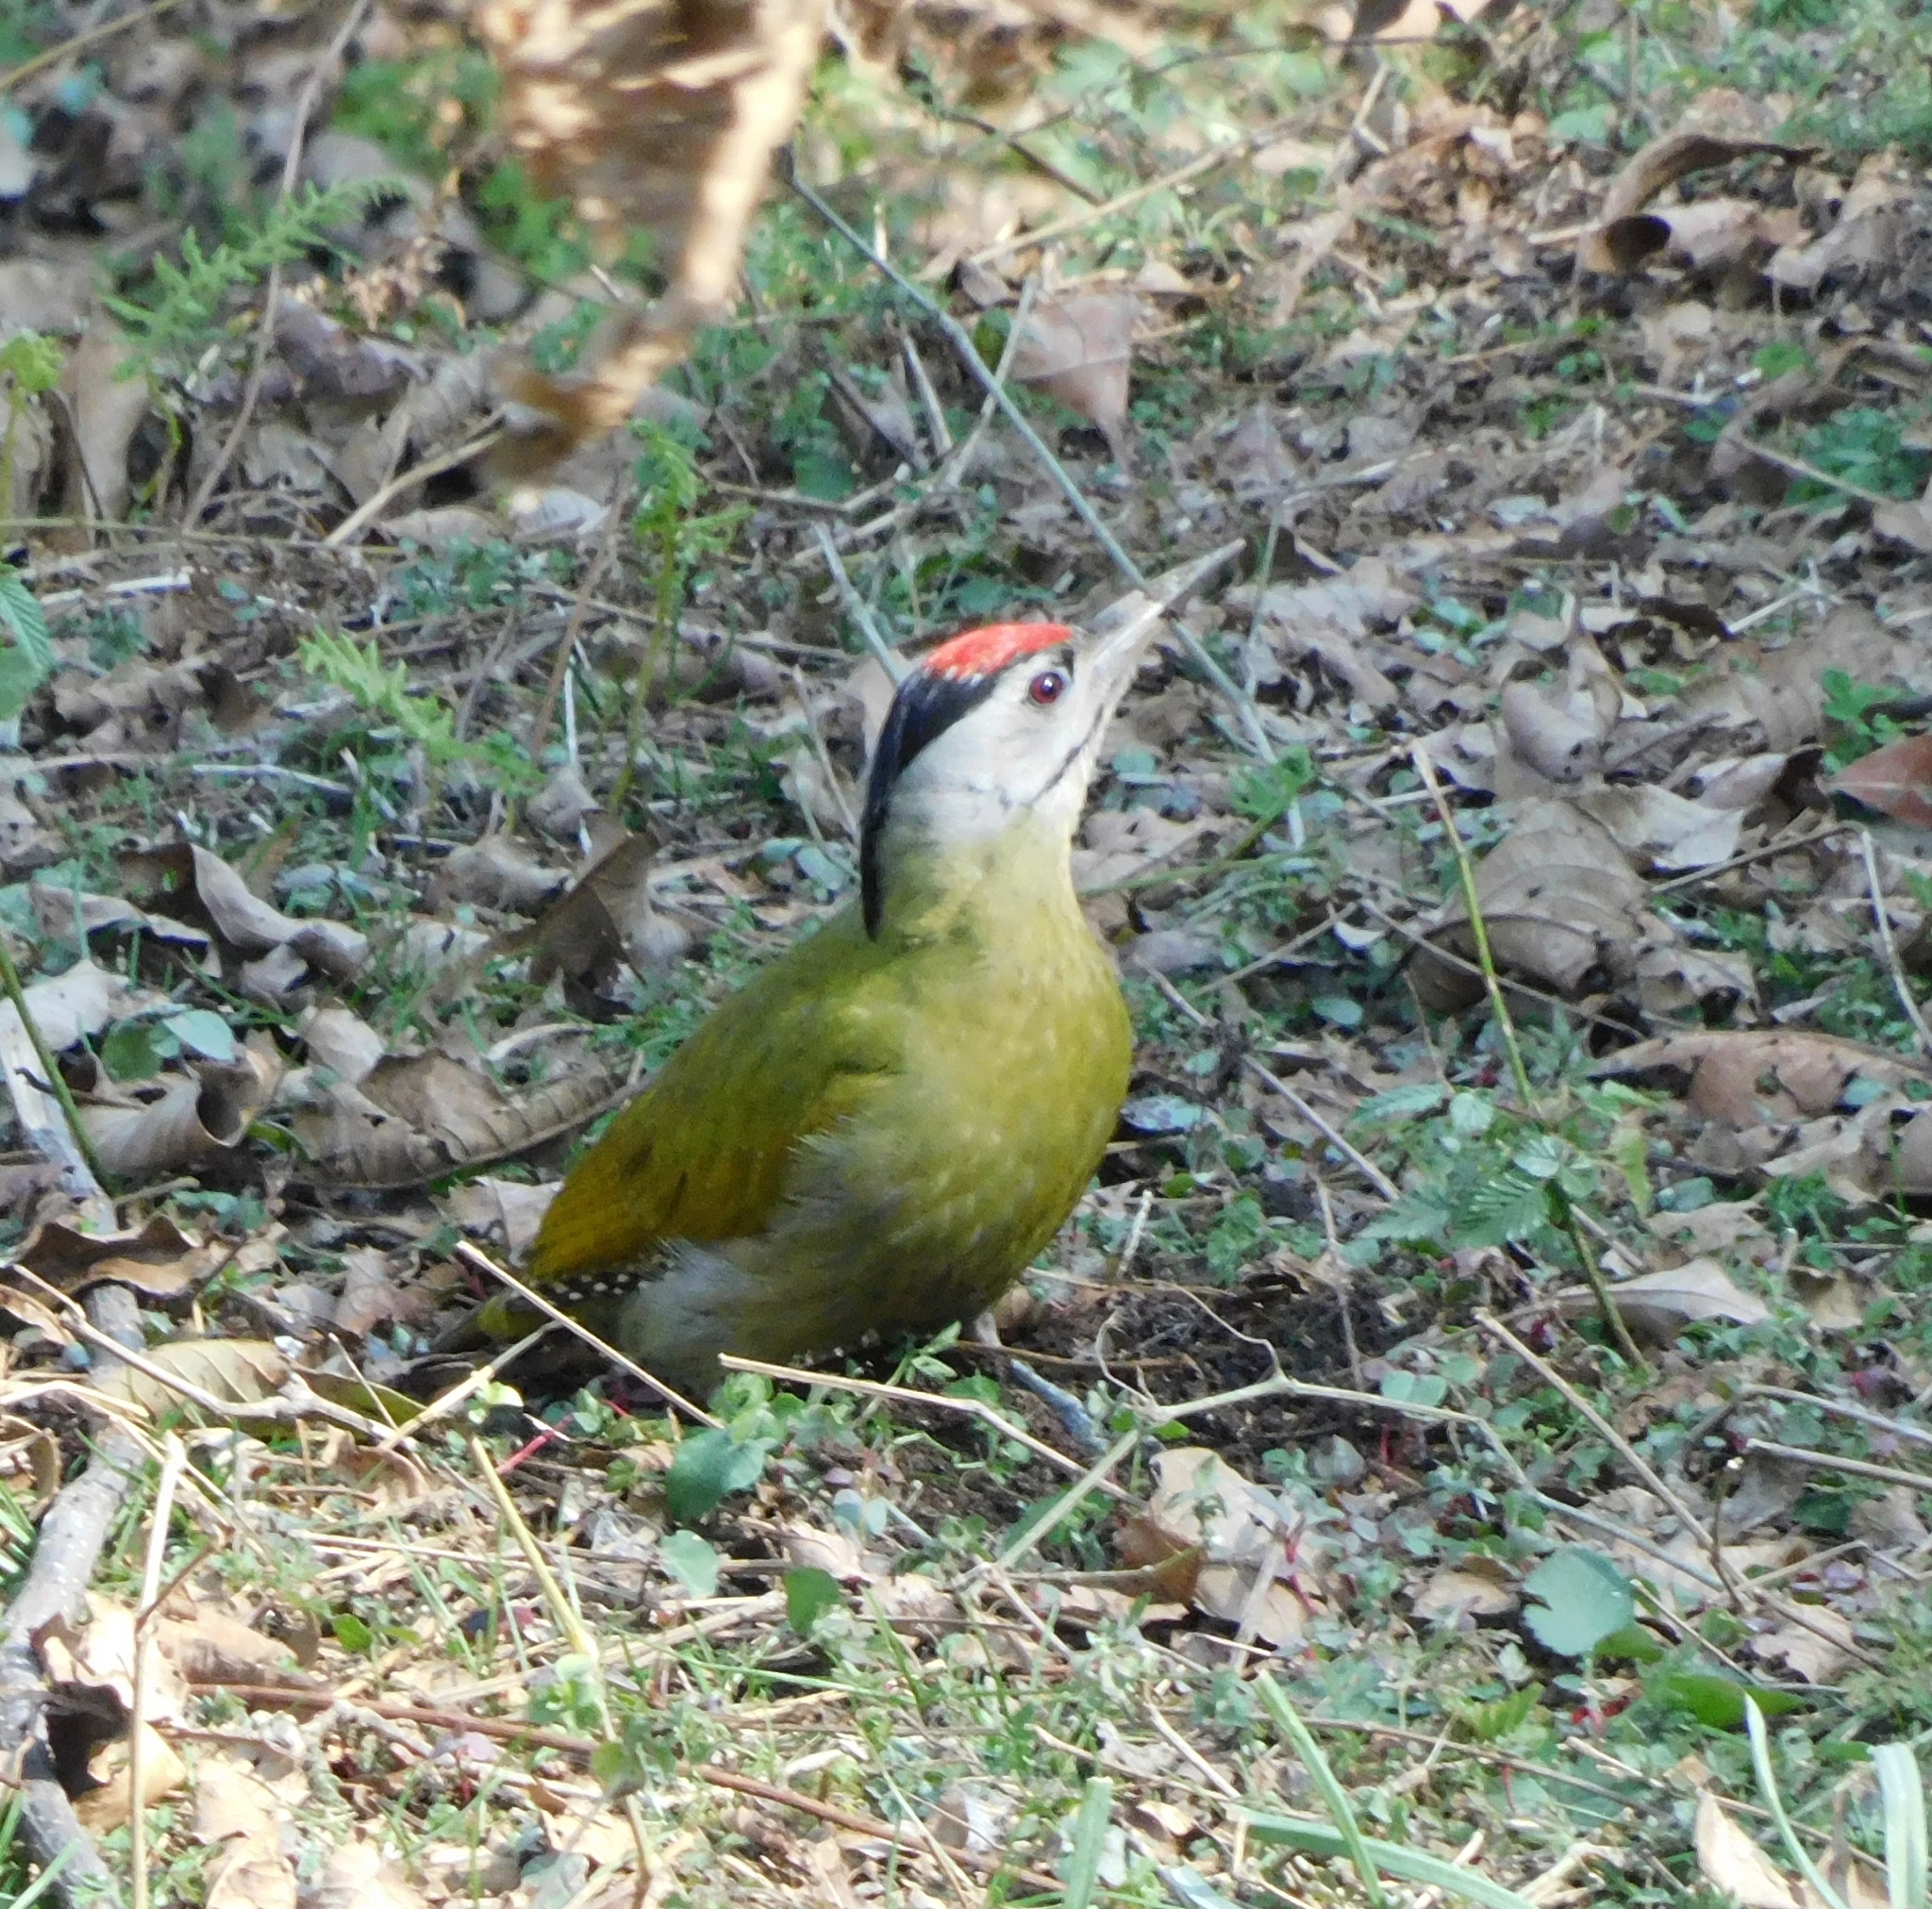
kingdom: Animalia
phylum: Chordata
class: Aves
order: Piciformes
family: Picidae
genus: Picus
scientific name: Picus canus
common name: Grey-headed woodpecker
